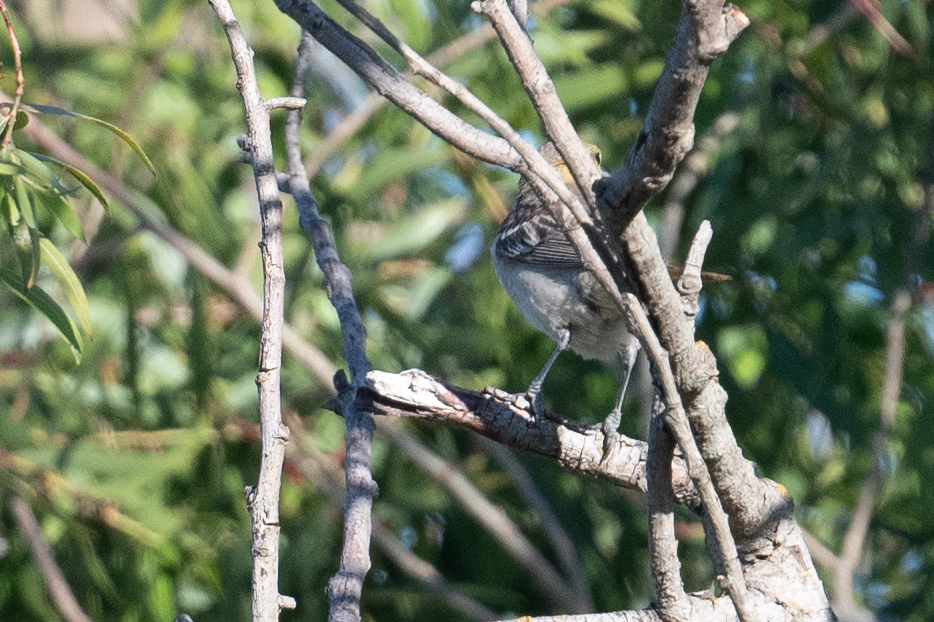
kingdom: Animalia
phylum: Chordata
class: Aves
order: Passeriformes
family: Icteridae
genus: Icterus
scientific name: Icterus bullockii
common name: Bullock's oriole
